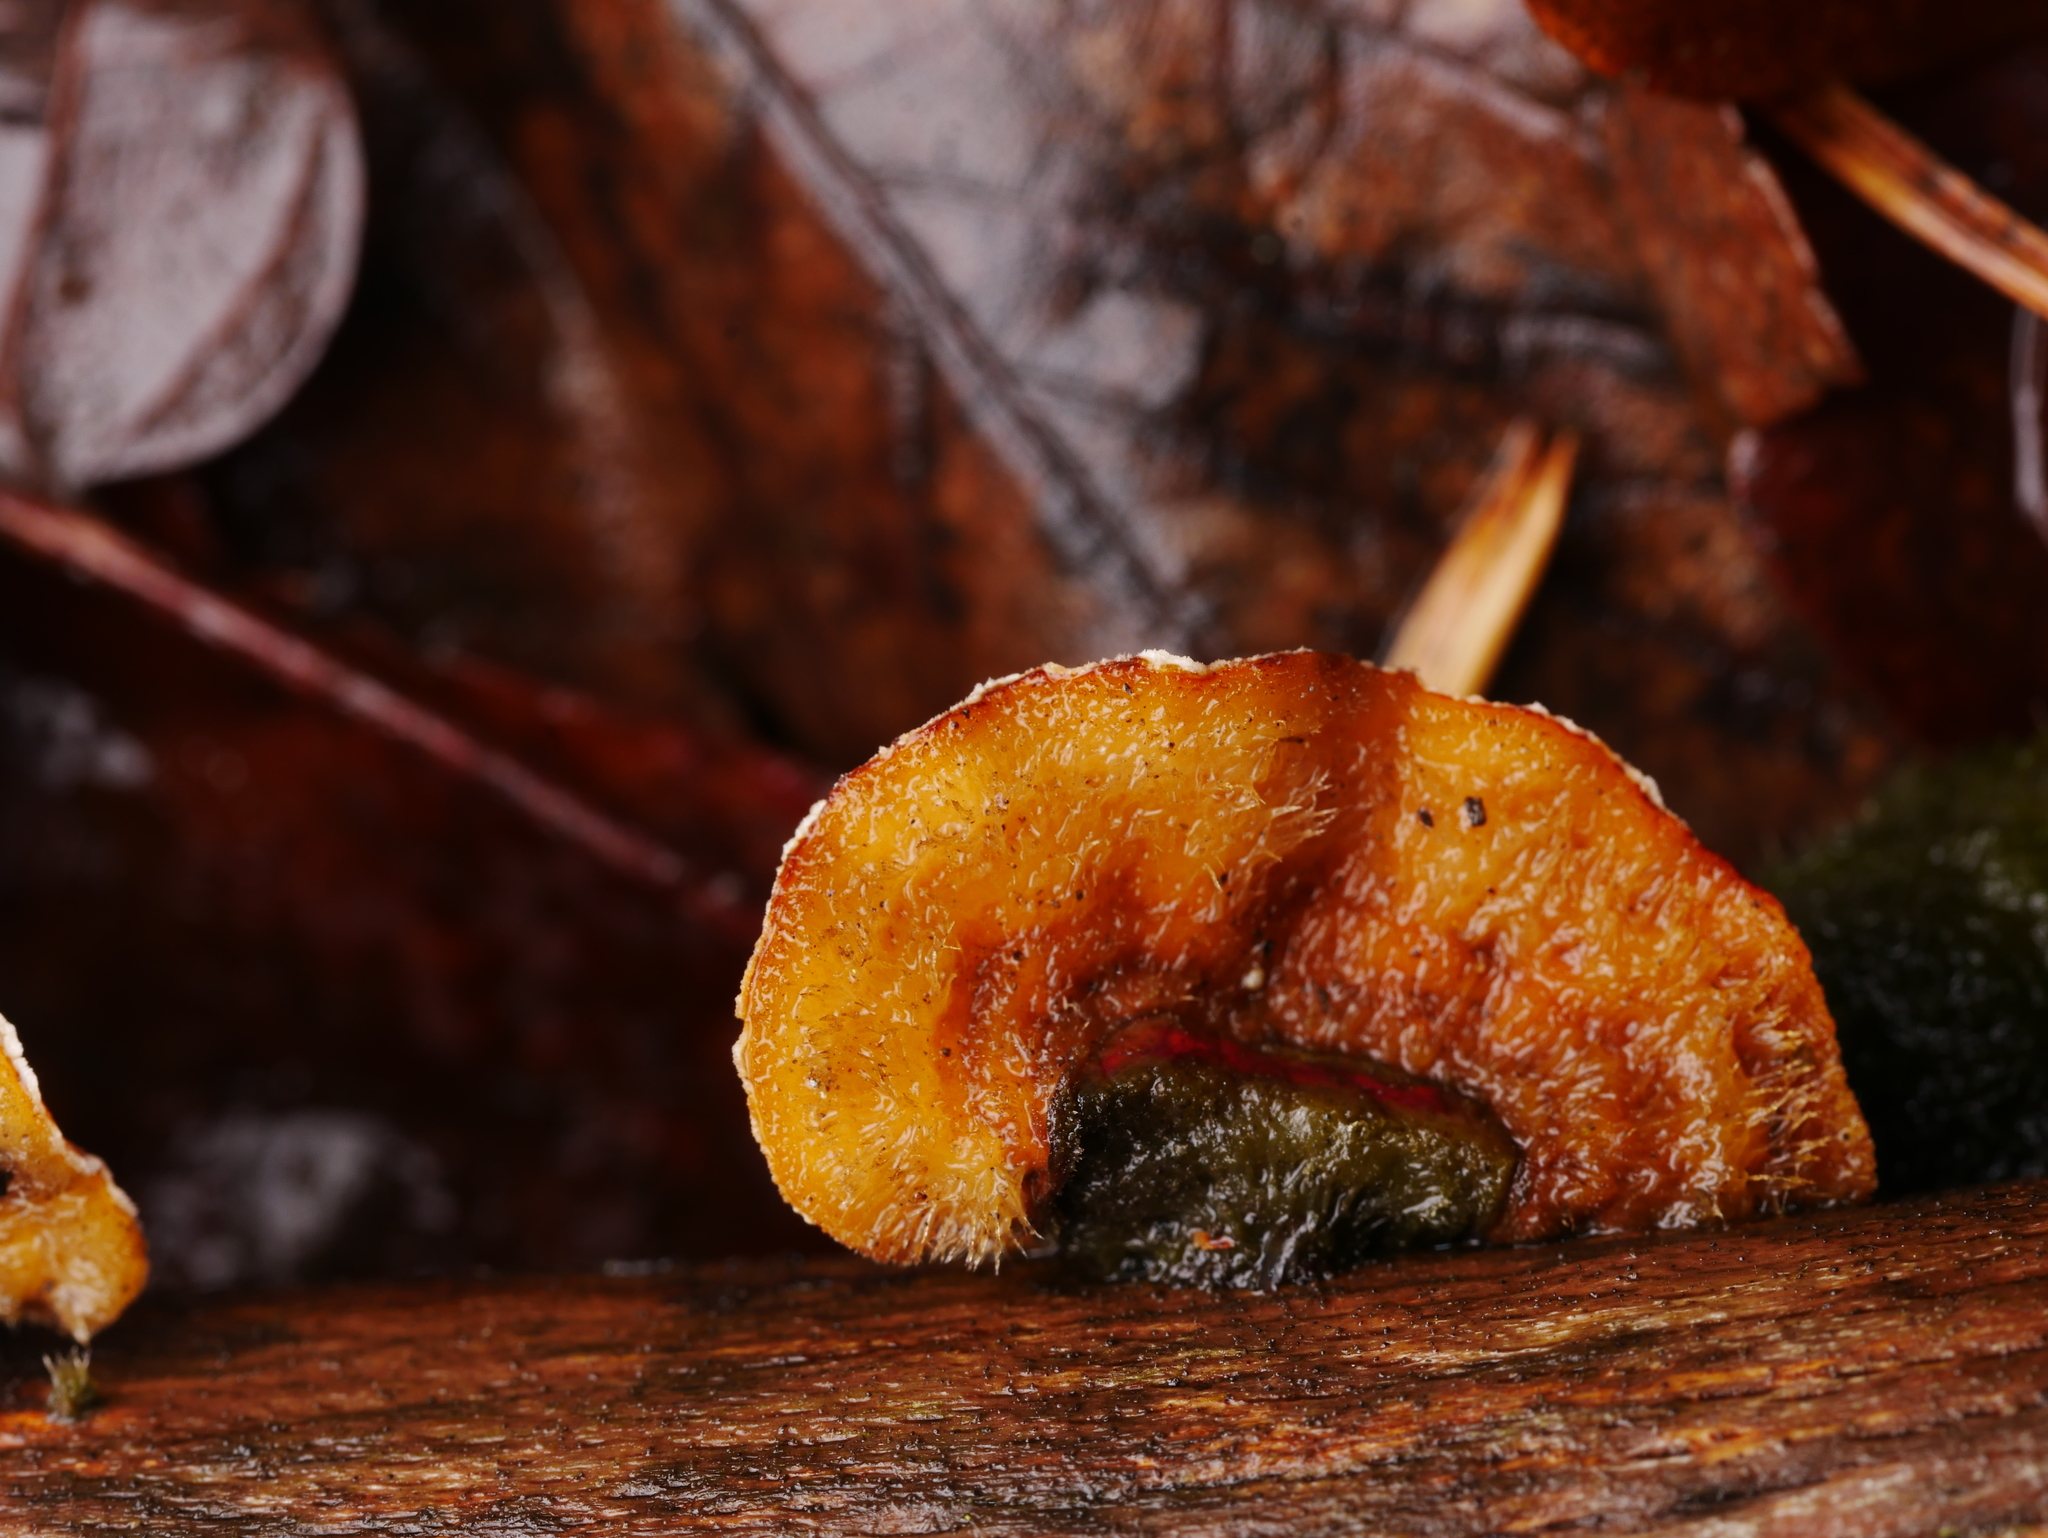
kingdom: Fungi
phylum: Basidiomycota
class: Agaricomycetes
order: Russulales
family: Stereaceae
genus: Stereum
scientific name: Stereum hirsutum
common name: Hairy curtain crust
